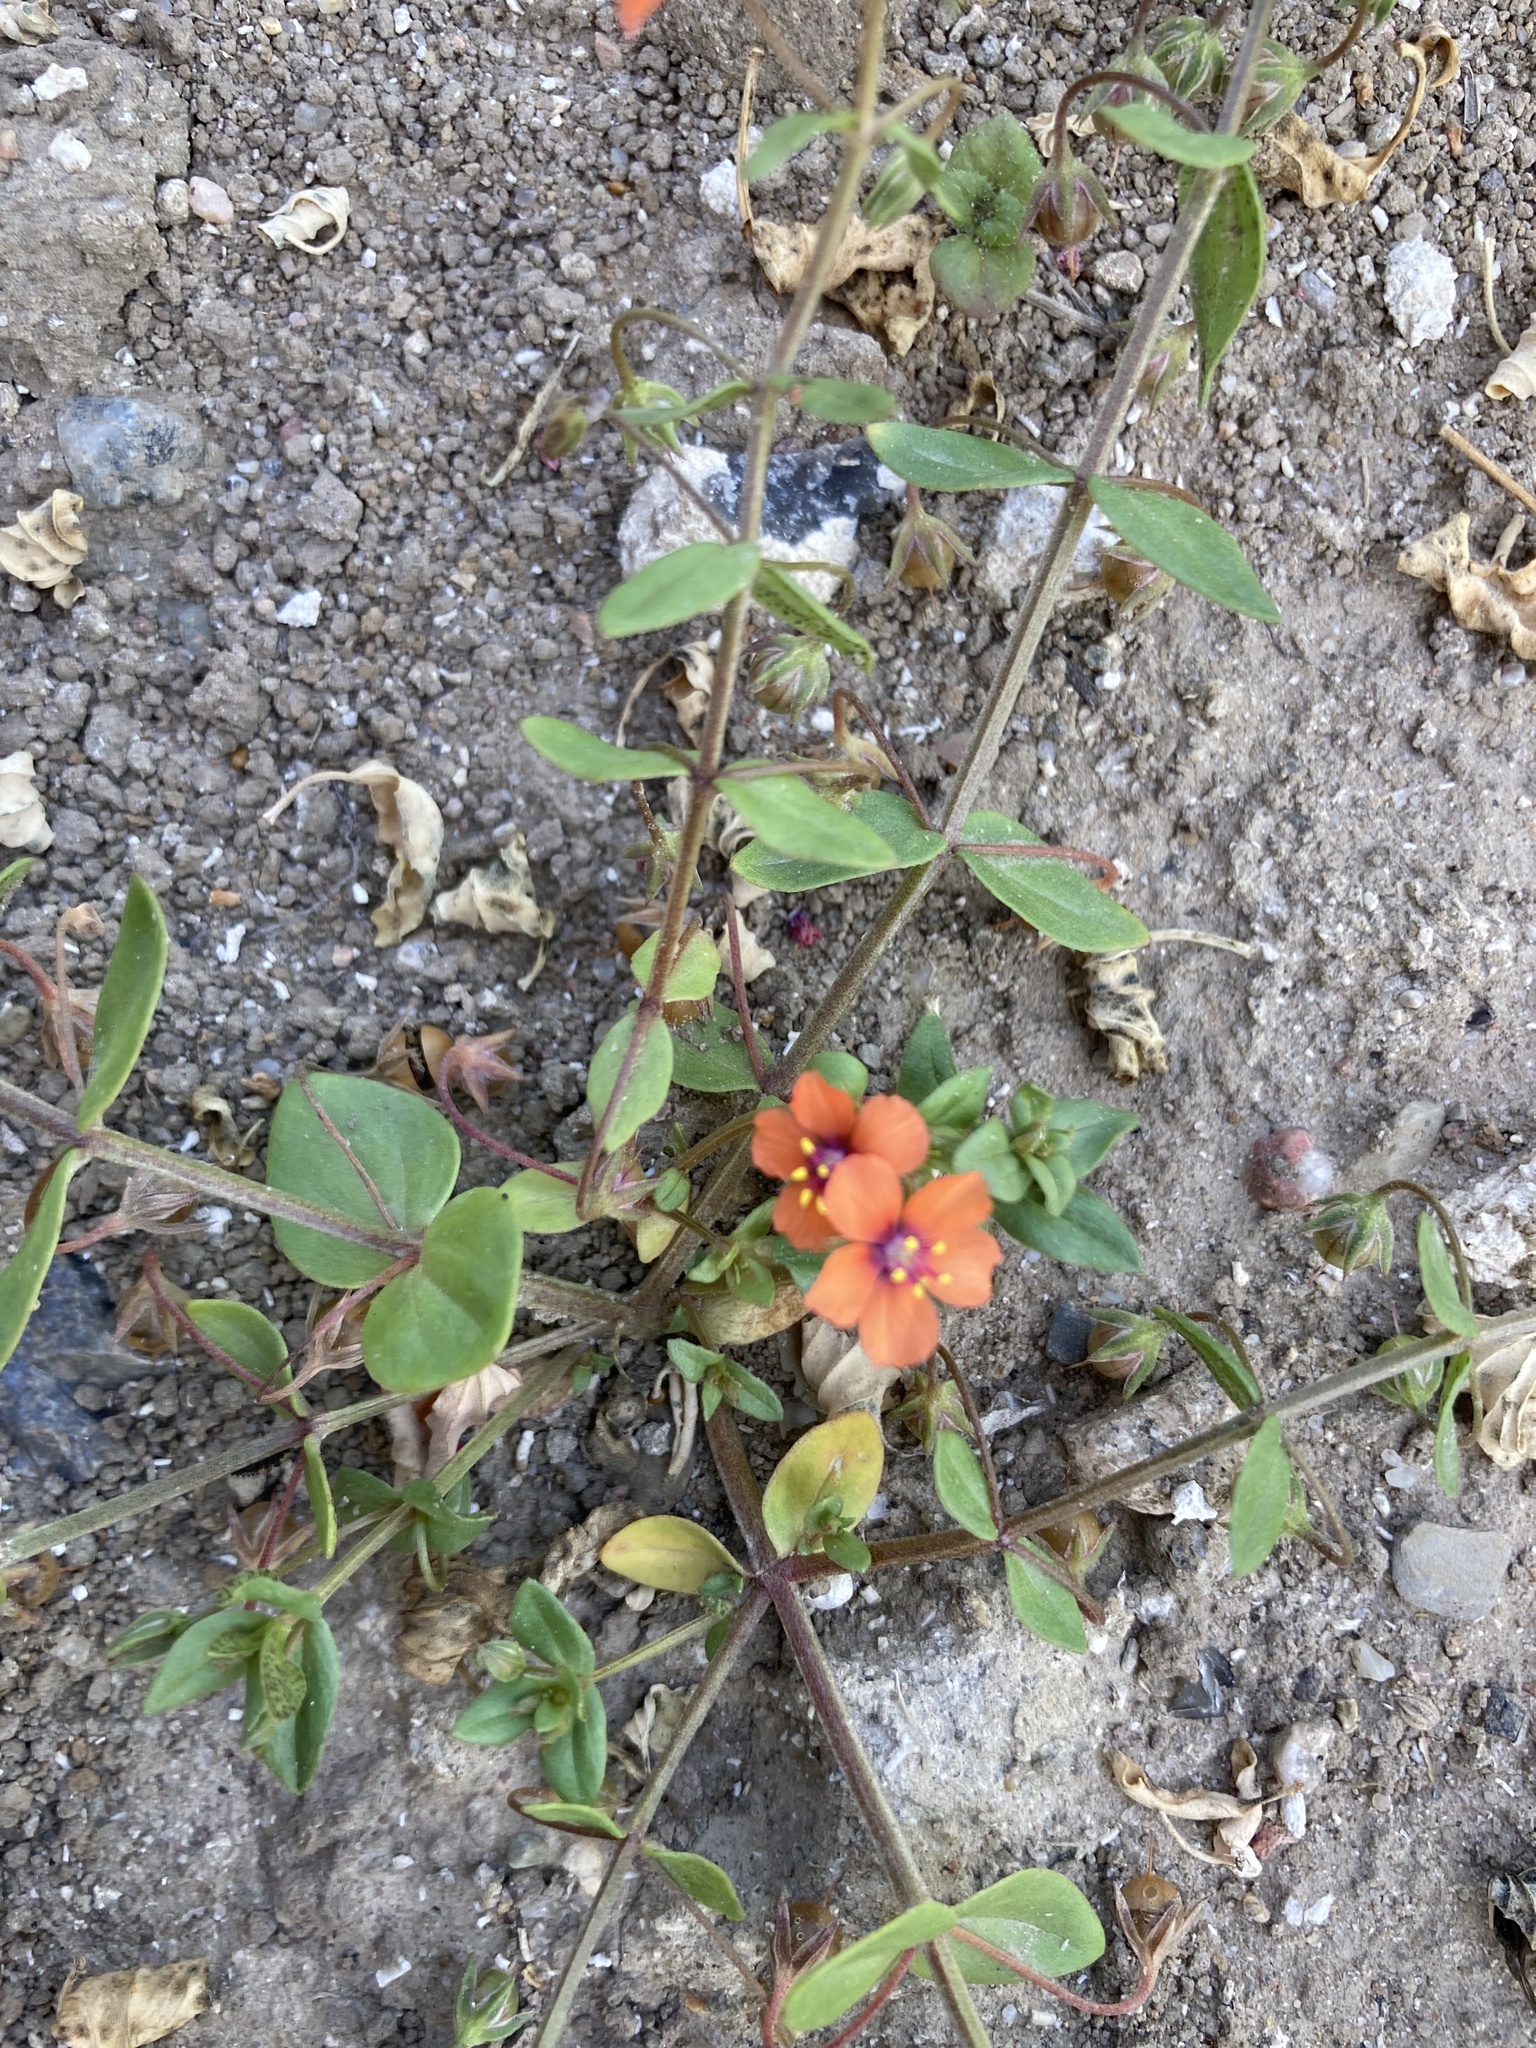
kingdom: Plantae
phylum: Tracheophyta
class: Magnoliopsida
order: Ericales
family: Primulaceae
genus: Lysimachia
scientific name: Lysimachia arvensis
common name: Scarlet pimpernel
